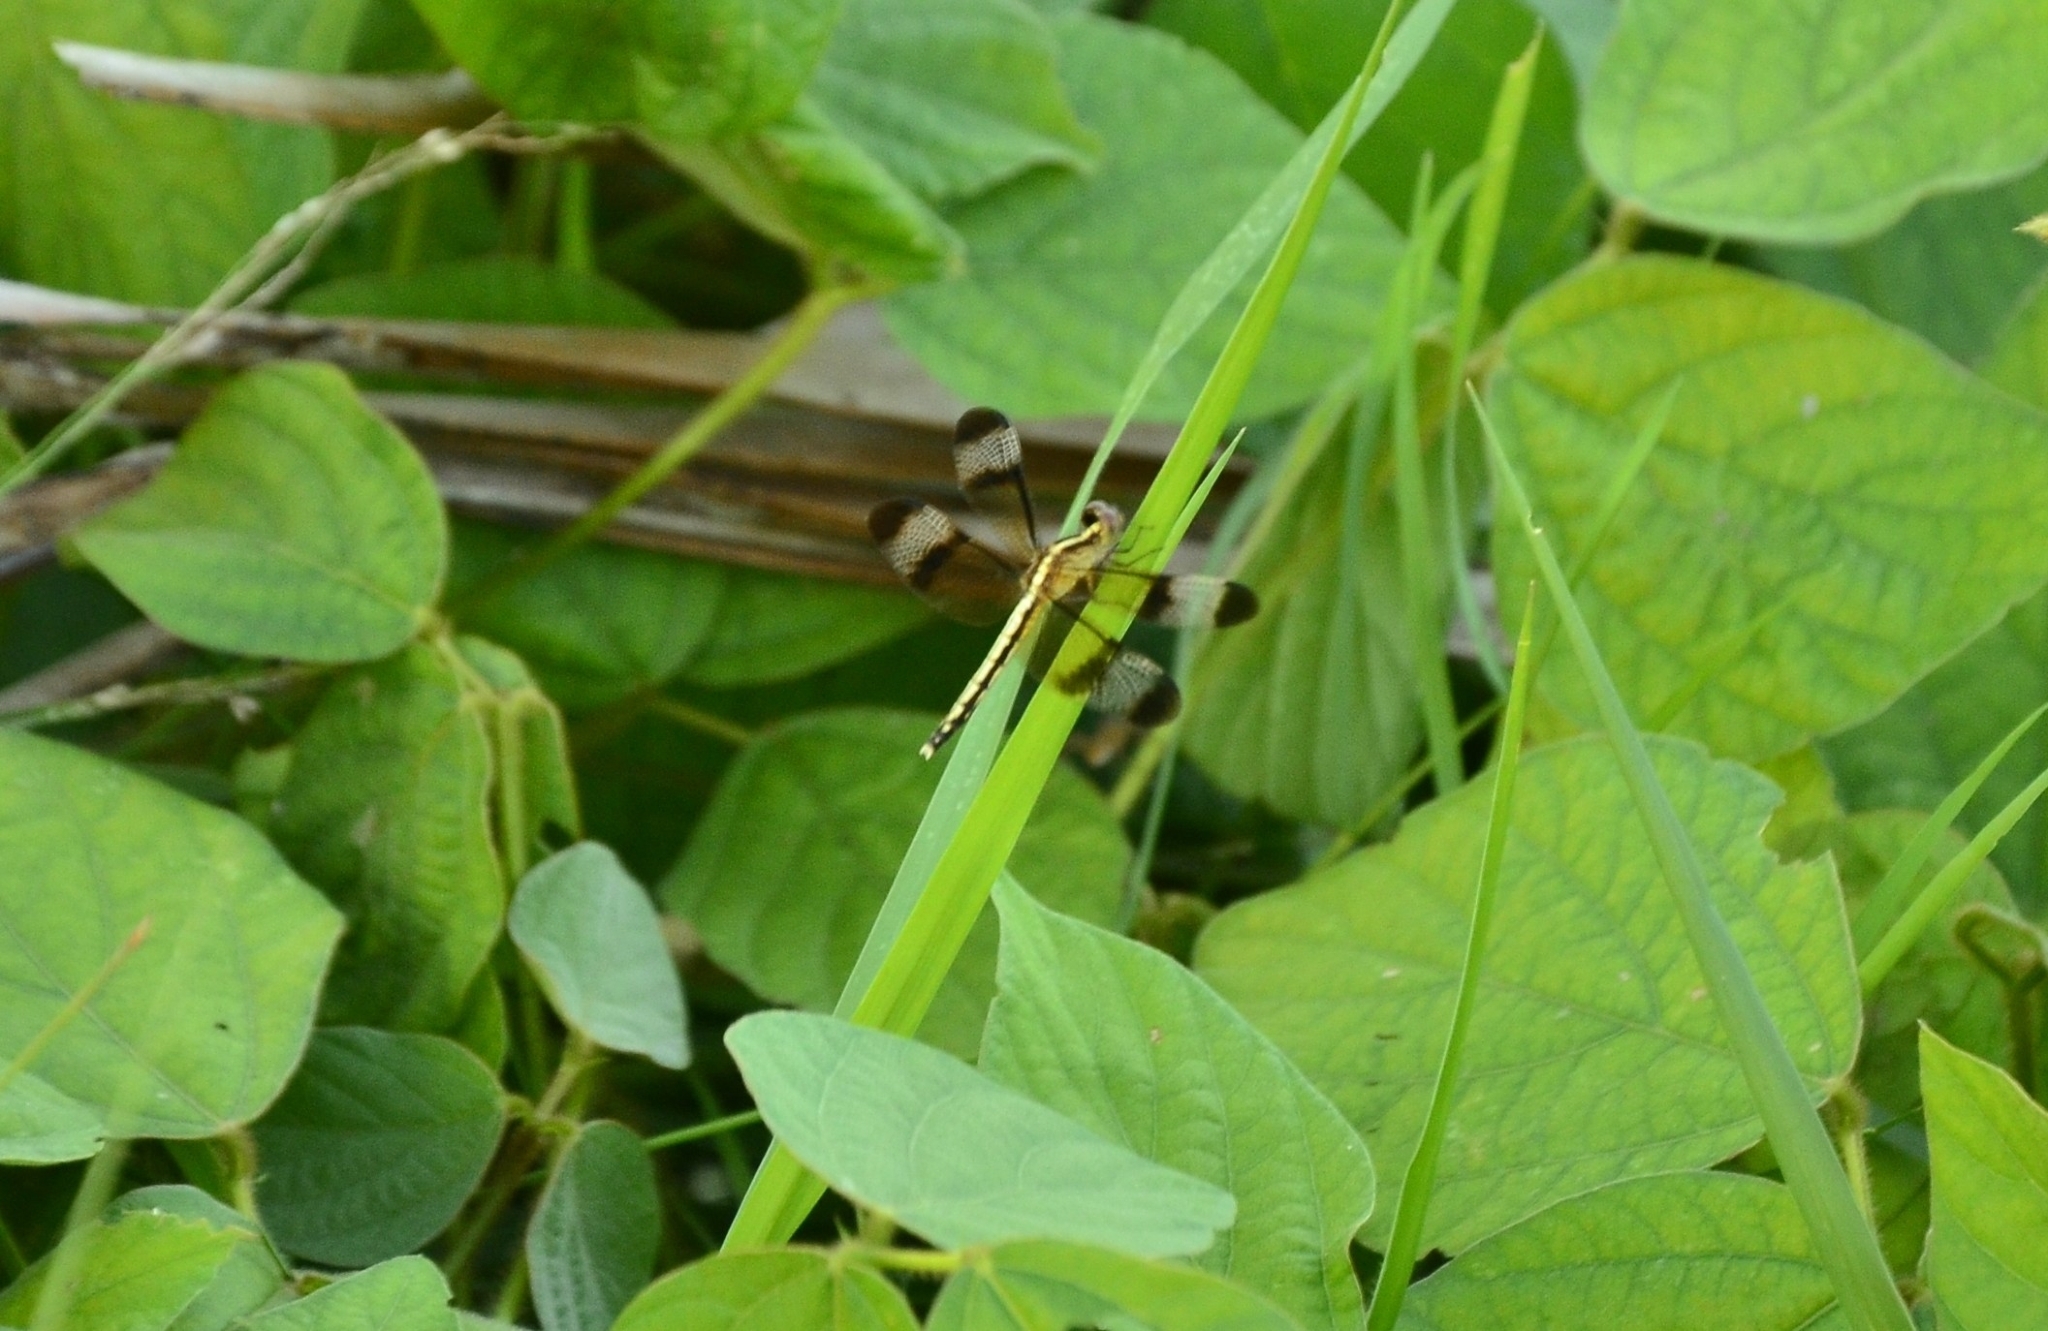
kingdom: Animalia
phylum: Arthropoda
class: Insecta
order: Odonata
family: Libellulidae
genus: Neurothemis
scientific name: Neurothemis tullia
